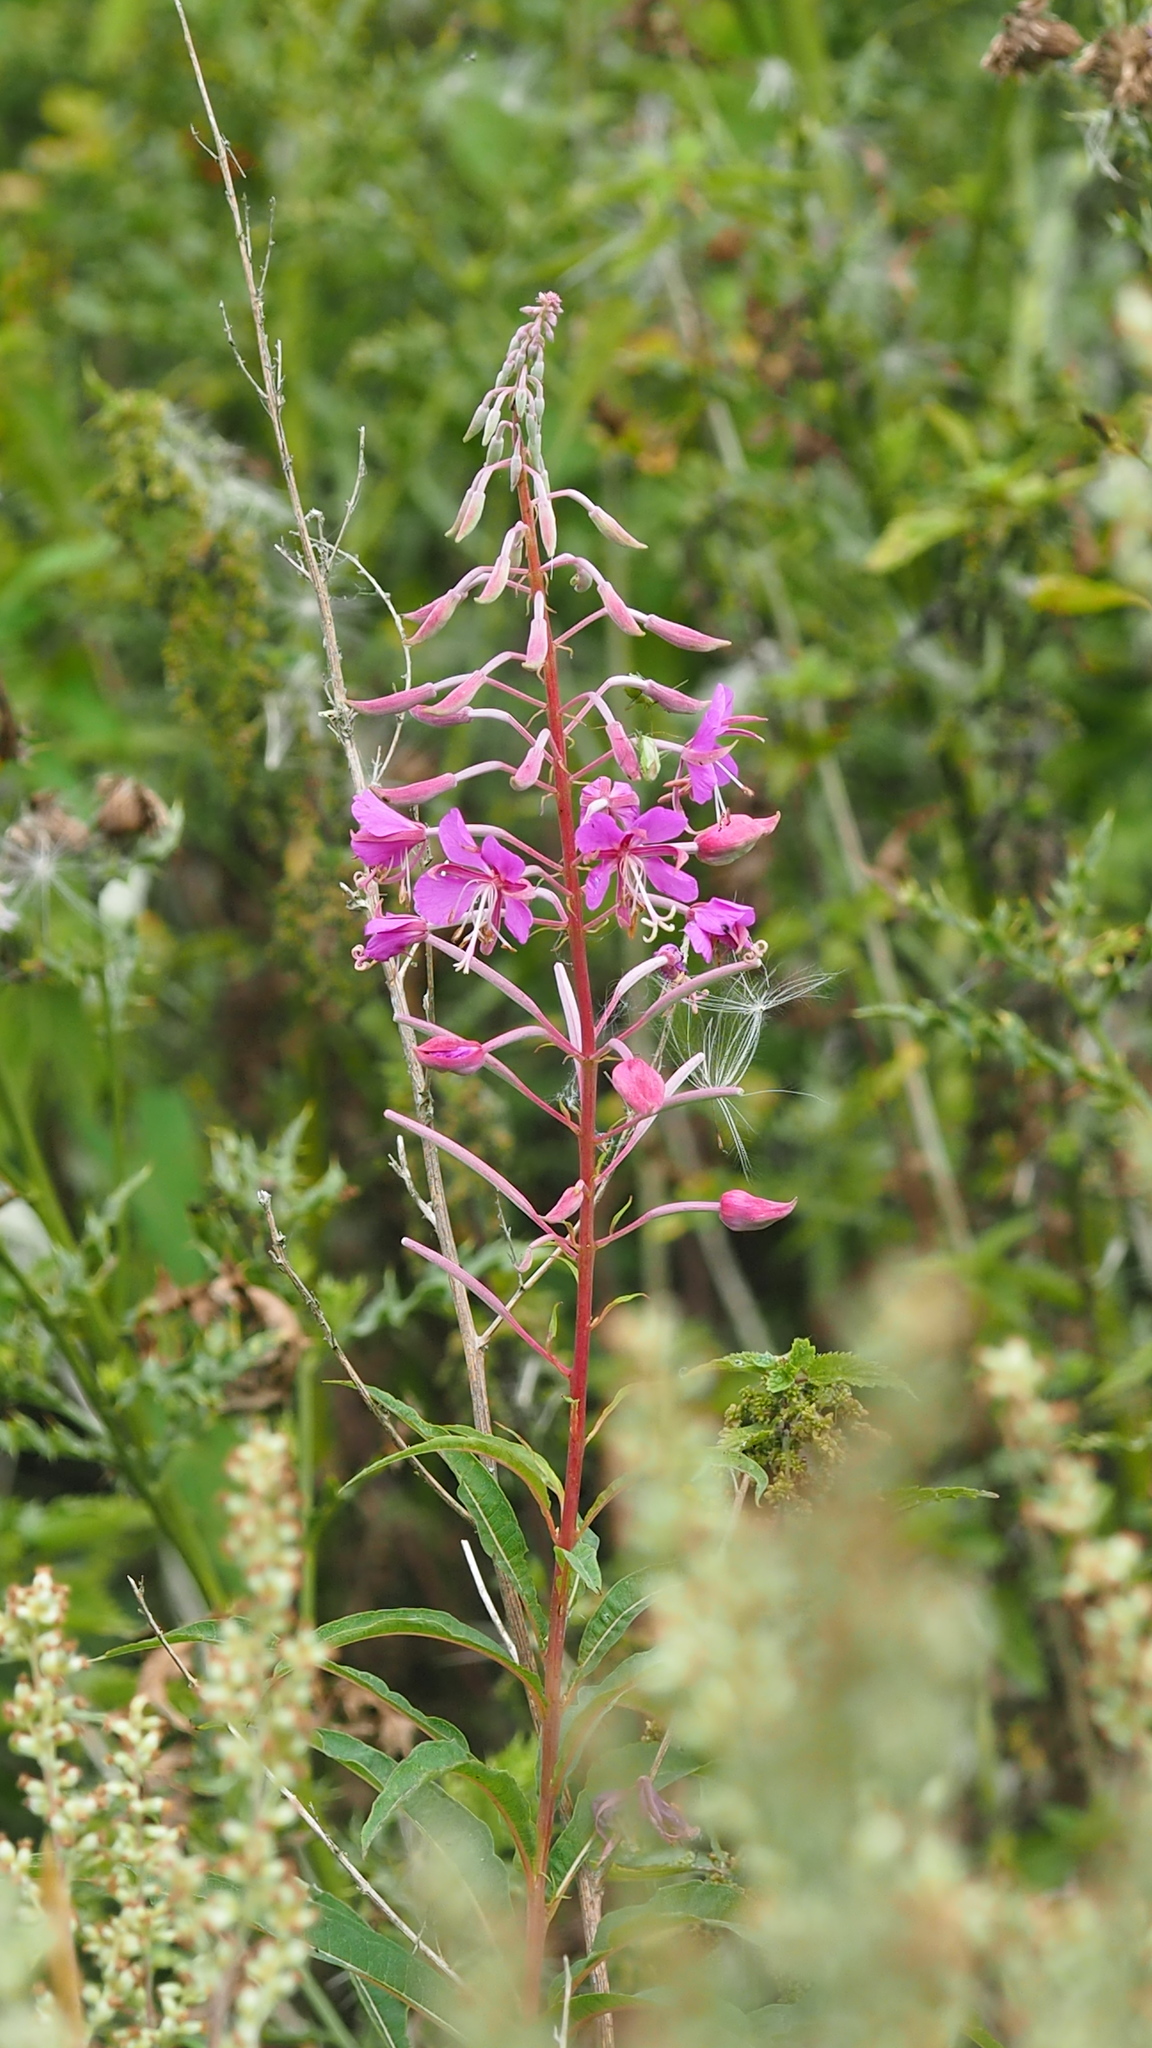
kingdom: Plantae
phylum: Tracheophyta
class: Magnoliopsida
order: Myrtales
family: Onagraceae
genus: Chamaenerion
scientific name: Chamaenerion angustifolium
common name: Fireweed
